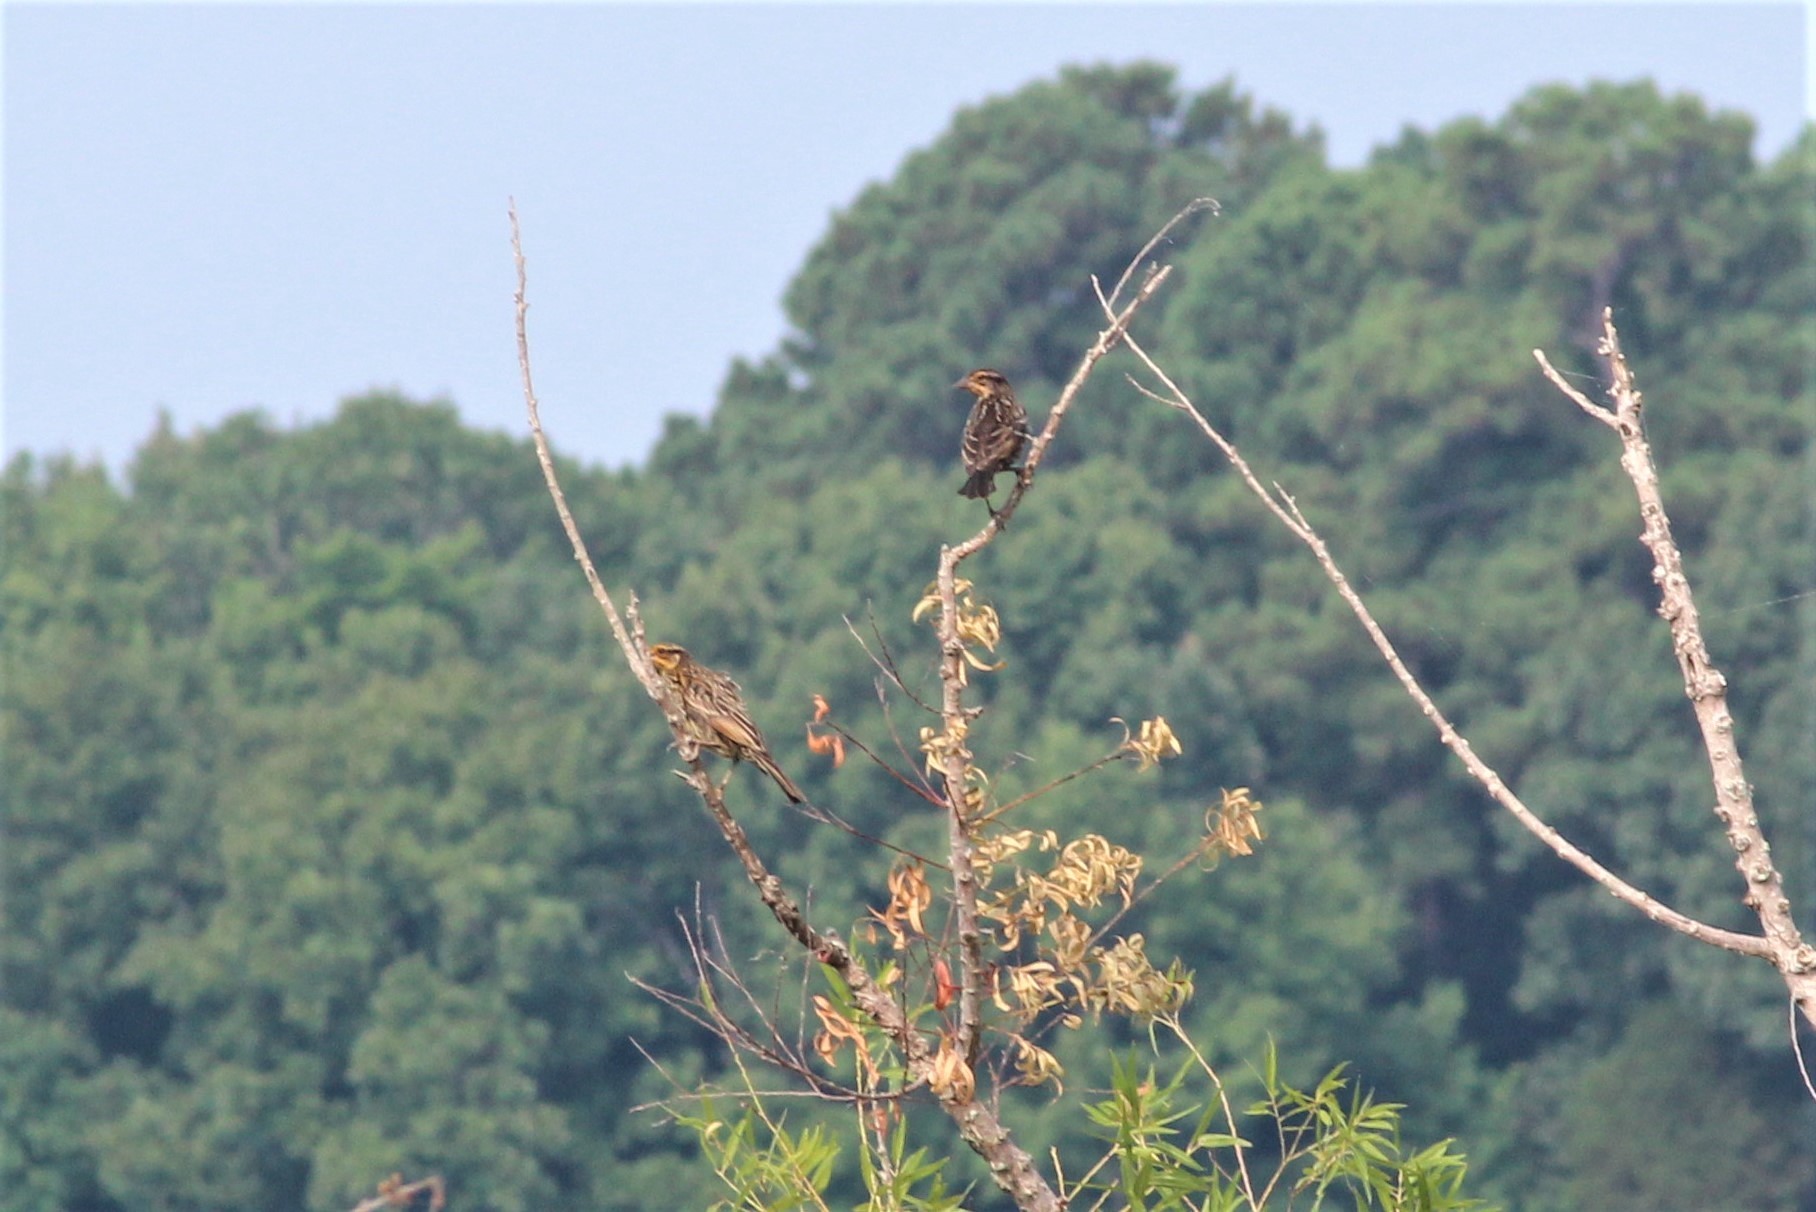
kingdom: Animalia
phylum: Chordata
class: Aves
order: Passeriformes
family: Icteridae
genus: Agelaius
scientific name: Agelaius phoeniceus
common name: Red-winged blackbird
